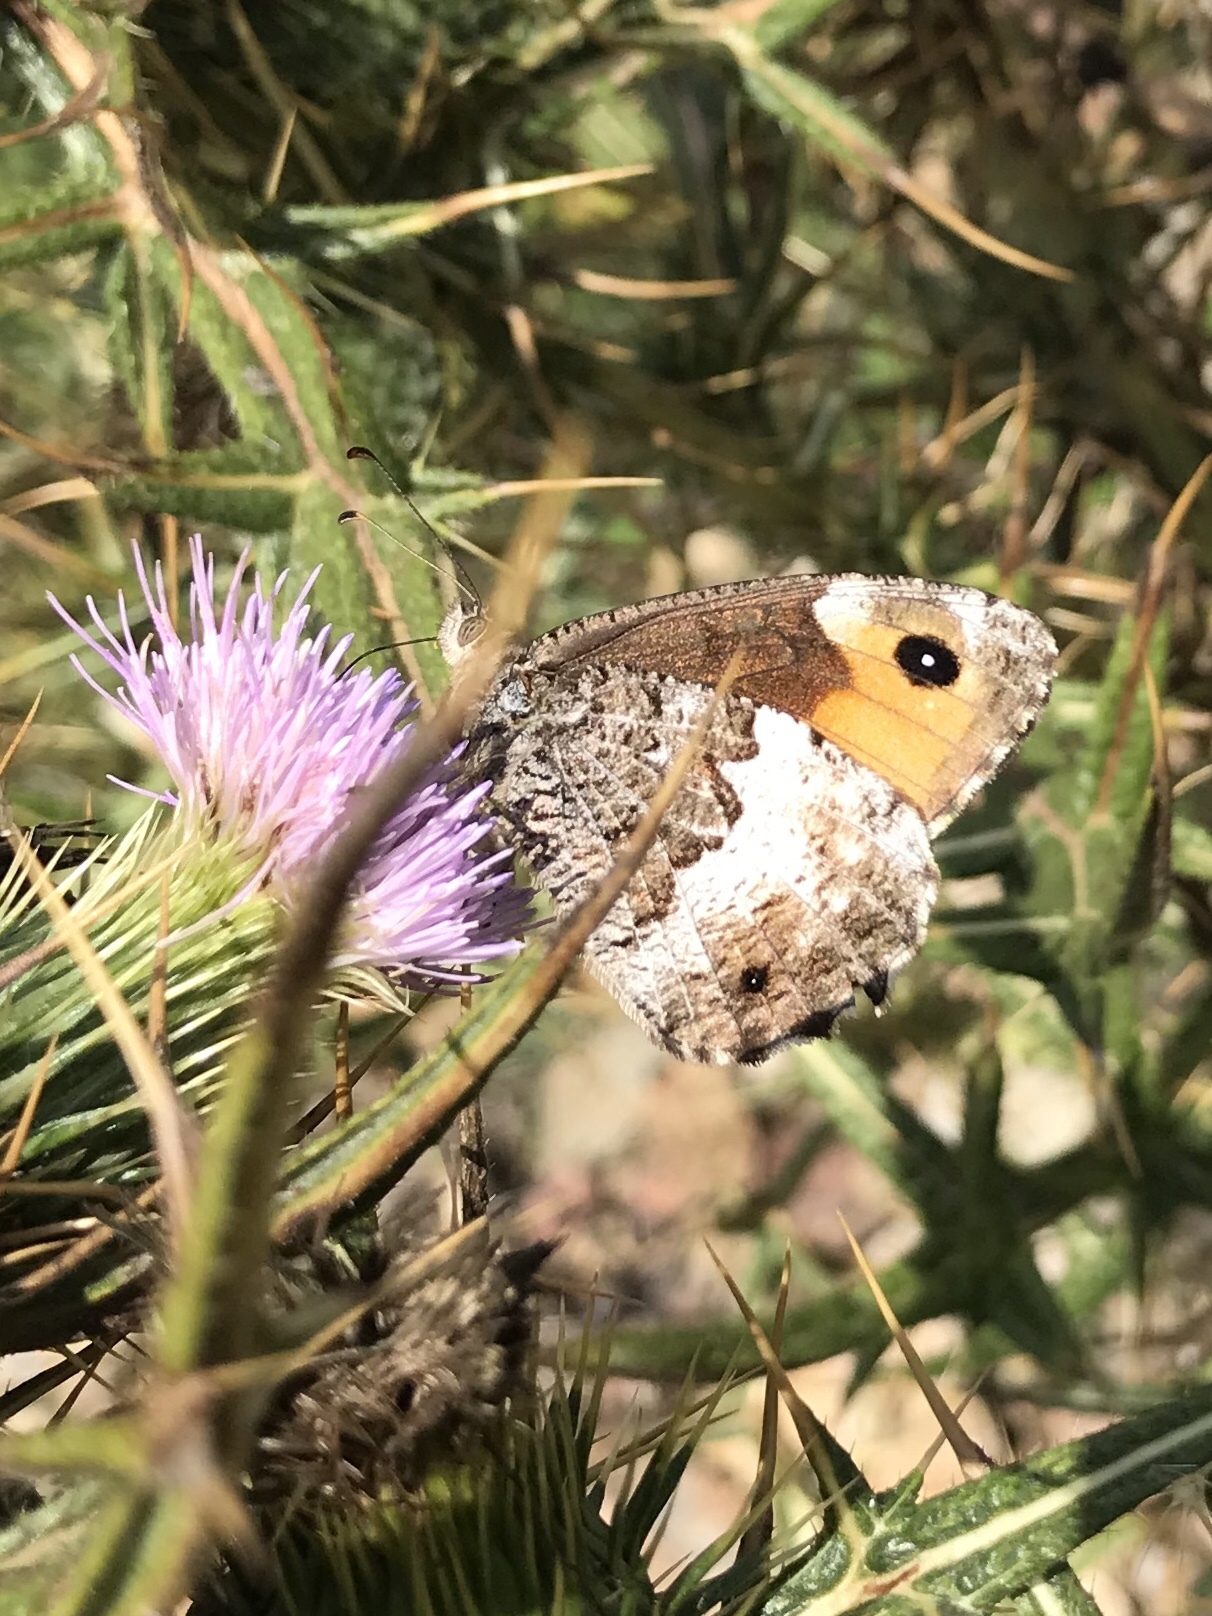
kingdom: Animalia
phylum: Arthropoda
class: Insecta
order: Lepidoptera
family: Nymphalidae
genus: Hipparchia
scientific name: Hipparchia neomiris
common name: Corsican grayling
